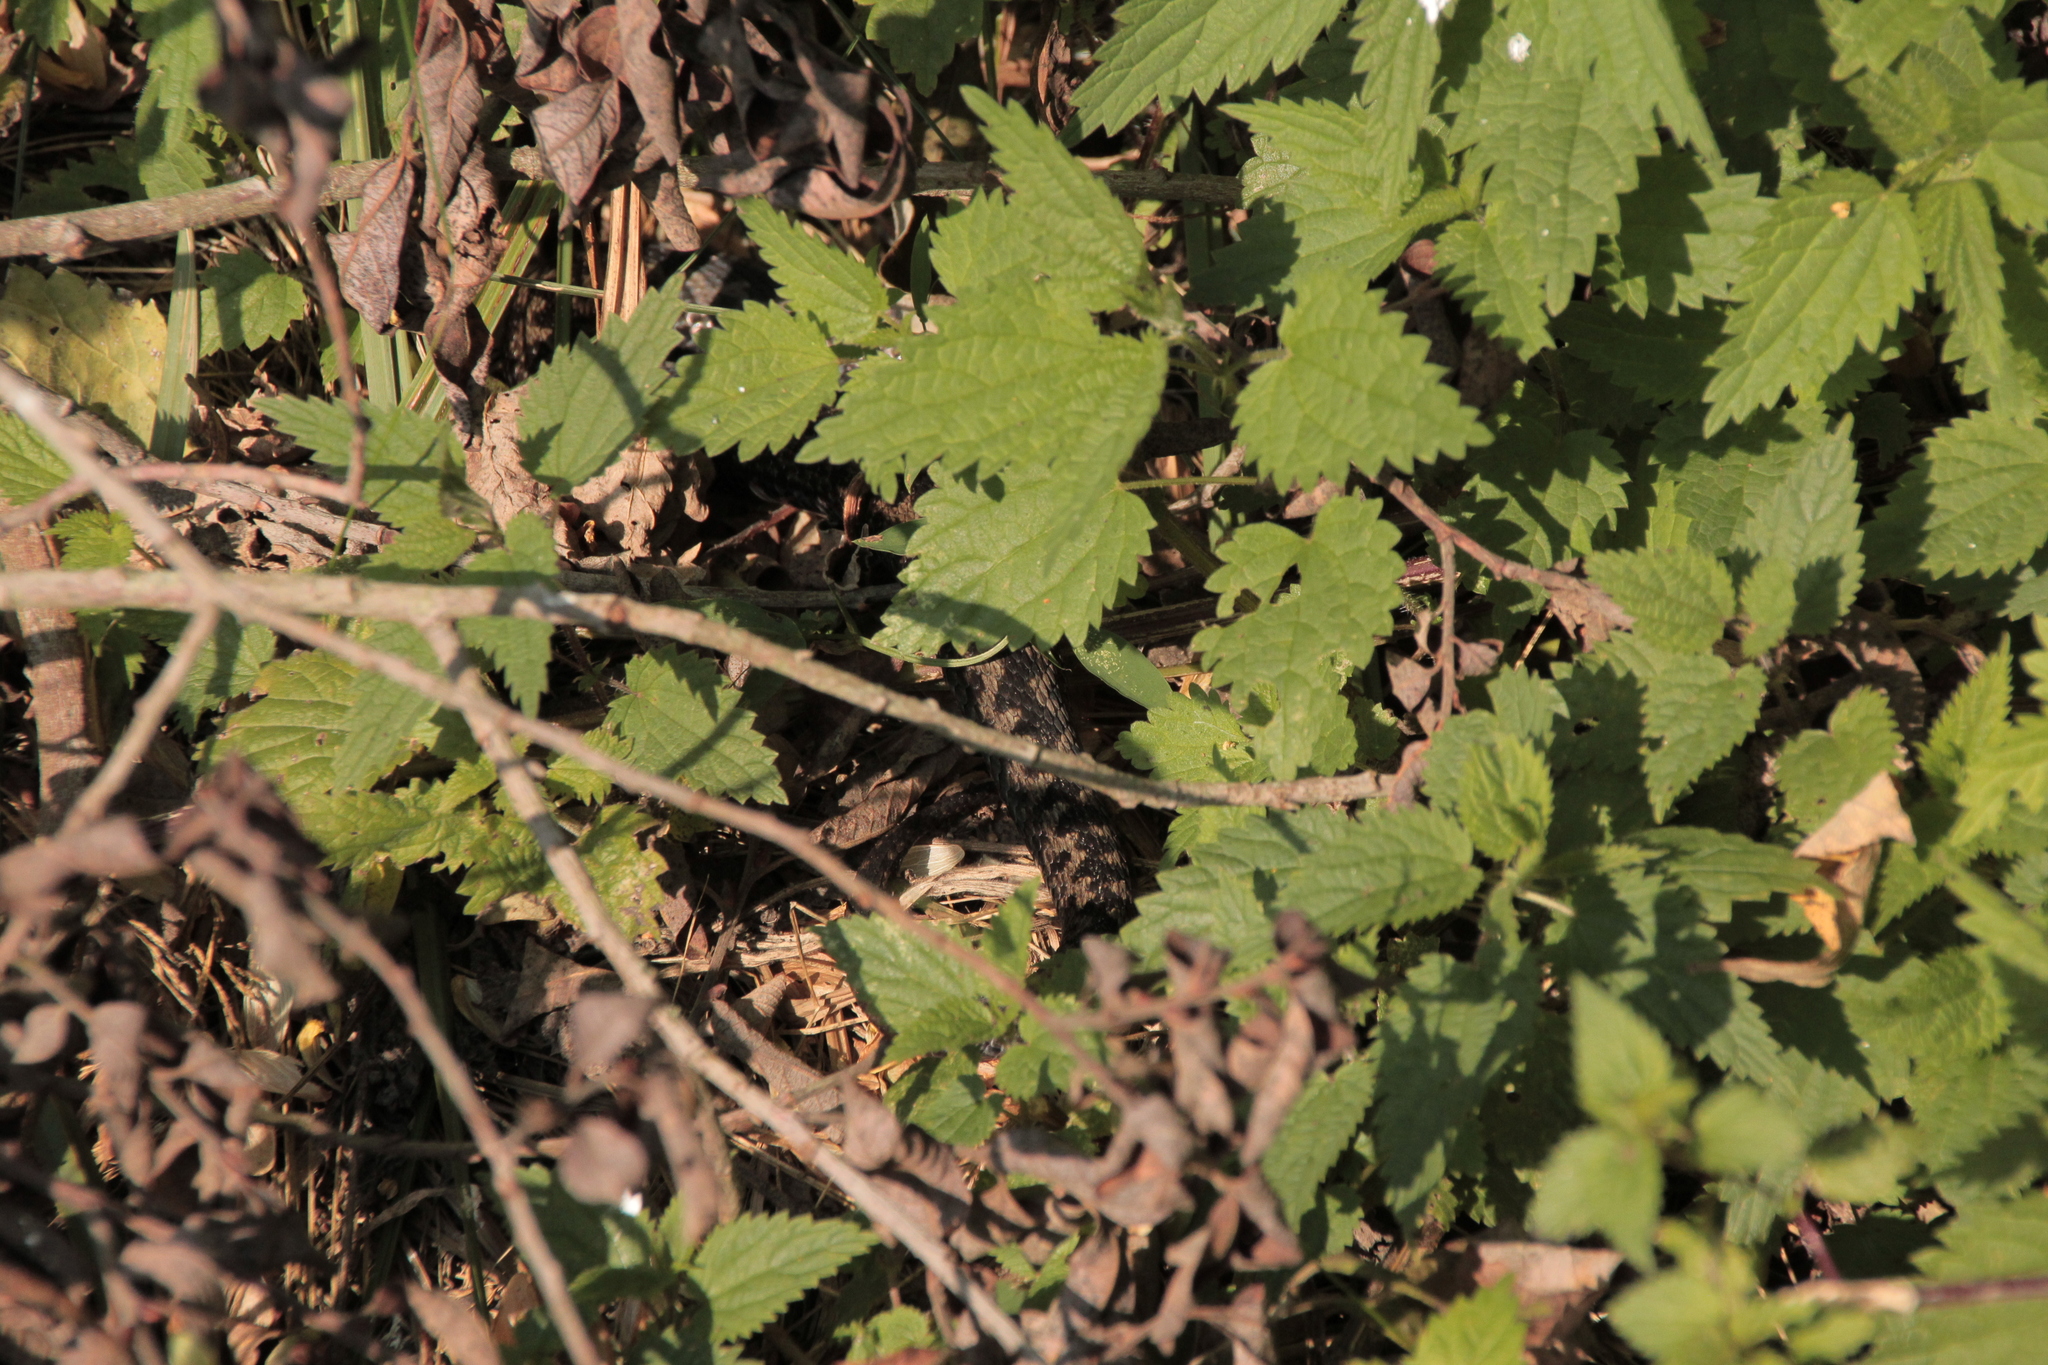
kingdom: Animalia
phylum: Chordata
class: Squamata
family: Viperidae
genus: Vipera
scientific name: Vipera berus
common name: Adder
